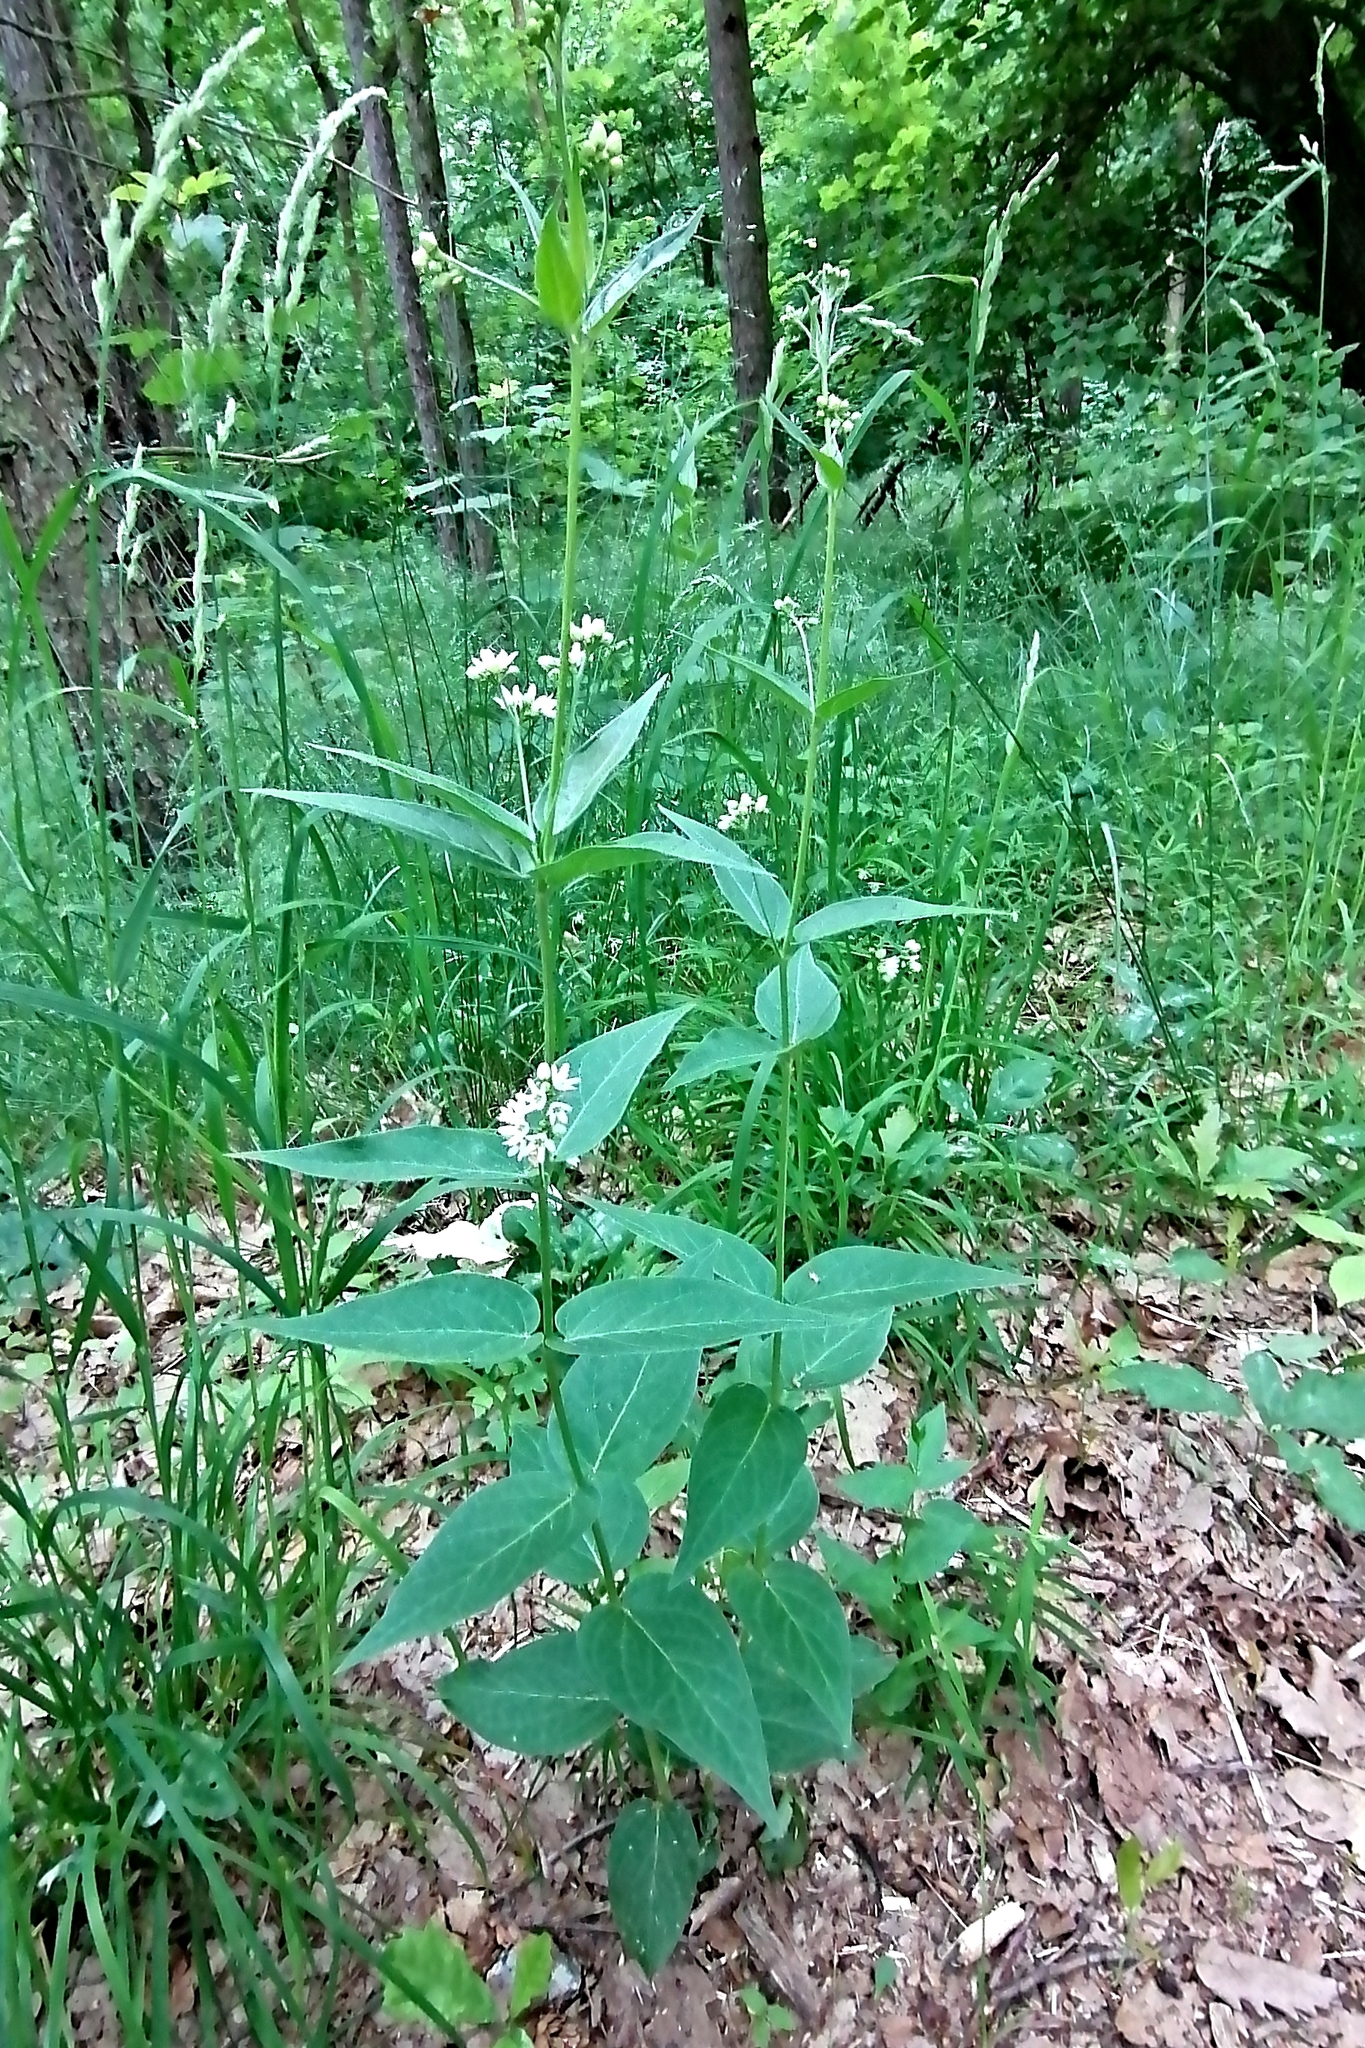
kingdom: Plantae
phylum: Tracheophyta
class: Magnoliopsida
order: Gentianales
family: Apocynaceae
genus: Vincetoxicum
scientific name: Vincetoxicum hirundinaria
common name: White swallowwort
